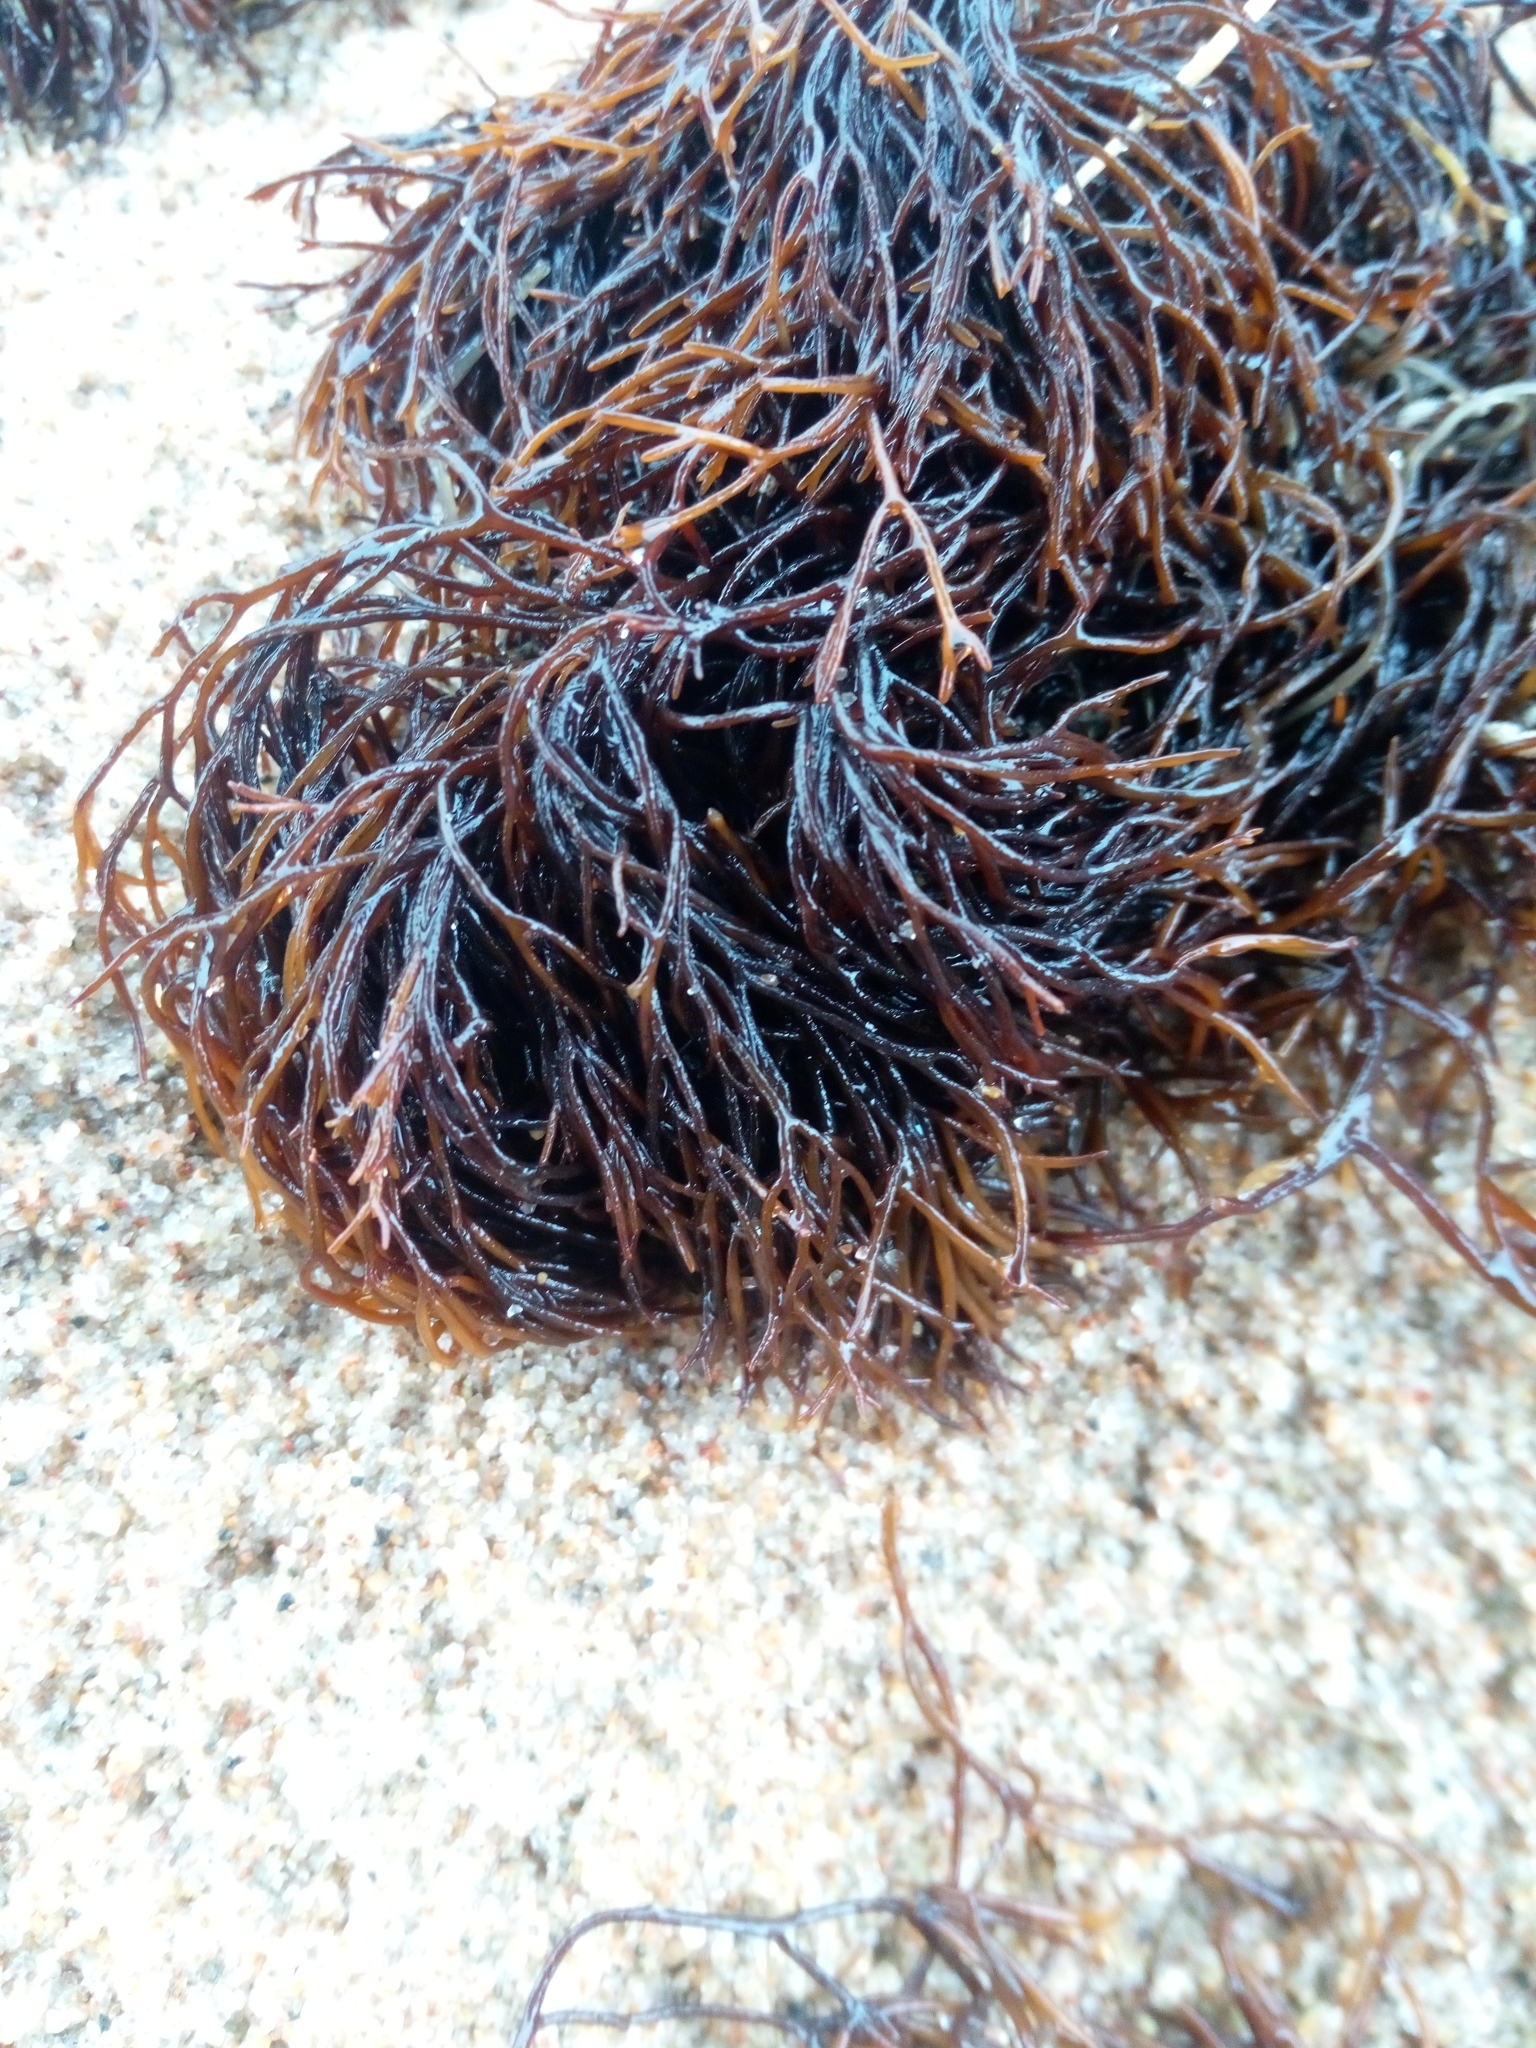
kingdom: Plantae
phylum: Rhodophyta
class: Florideophyceae
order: Gigartinales
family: Furcellariaceae
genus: Furcellaria
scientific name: Furcellaria lumbricalis
